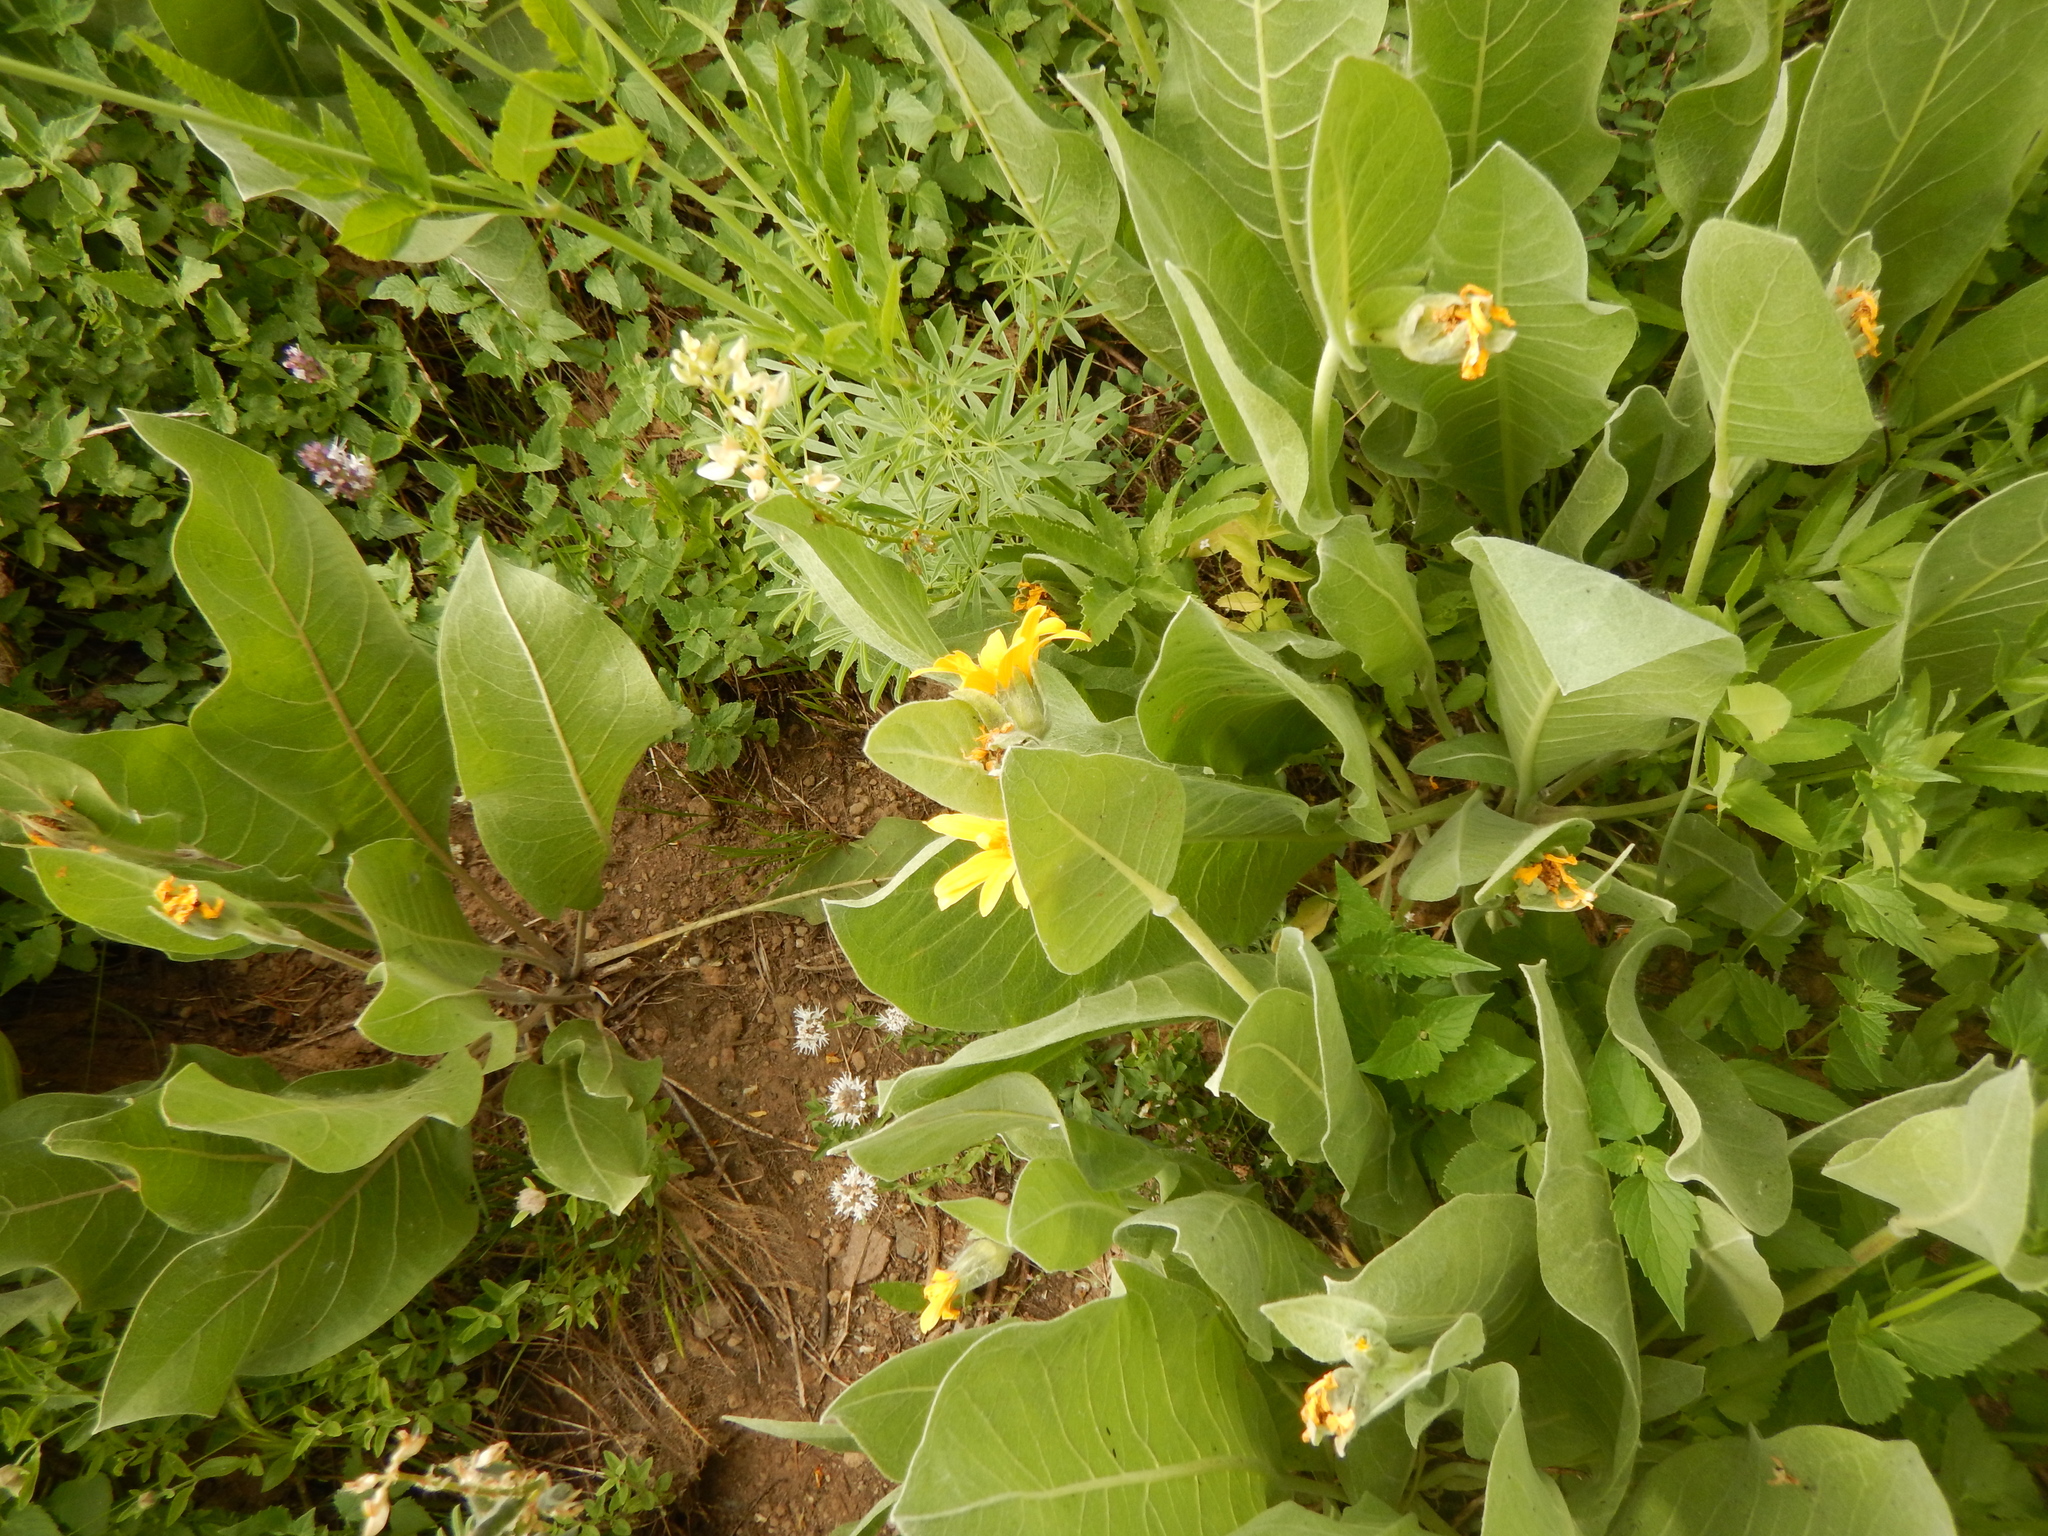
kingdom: Plantae
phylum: Tracheophyta
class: Magnoliopsida
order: Asterales
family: Asteraceae
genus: Wyethia
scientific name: Wyethia mollis
